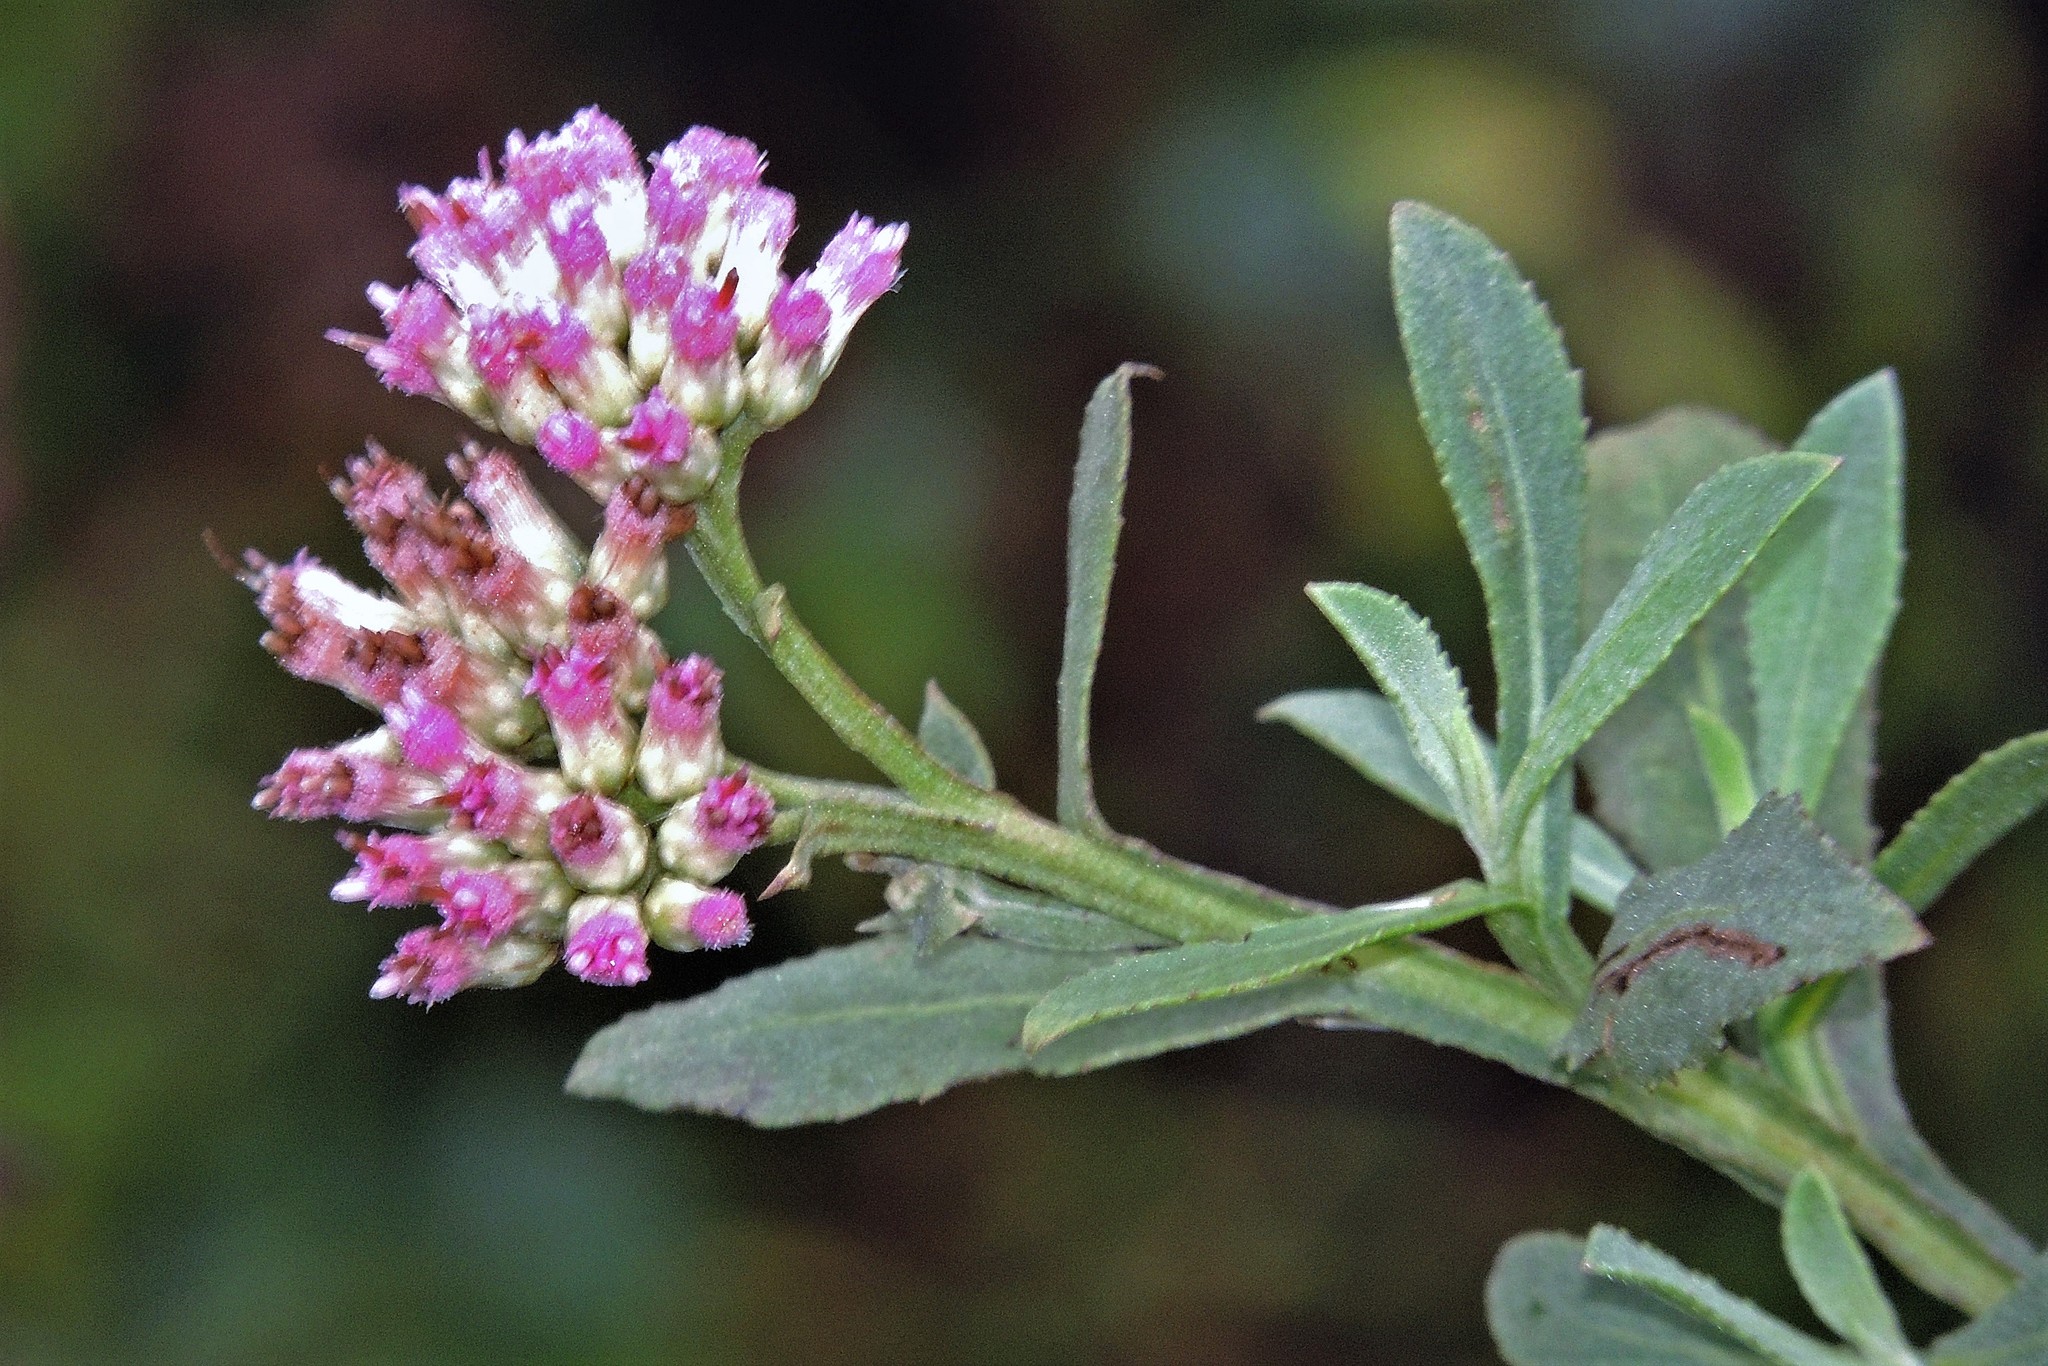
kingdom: Plantae
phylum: Tracheophyta
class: Magnoliopsida
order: Asterales
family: Asteraceae
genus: Pluchea
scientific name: Pluchea microcephala
